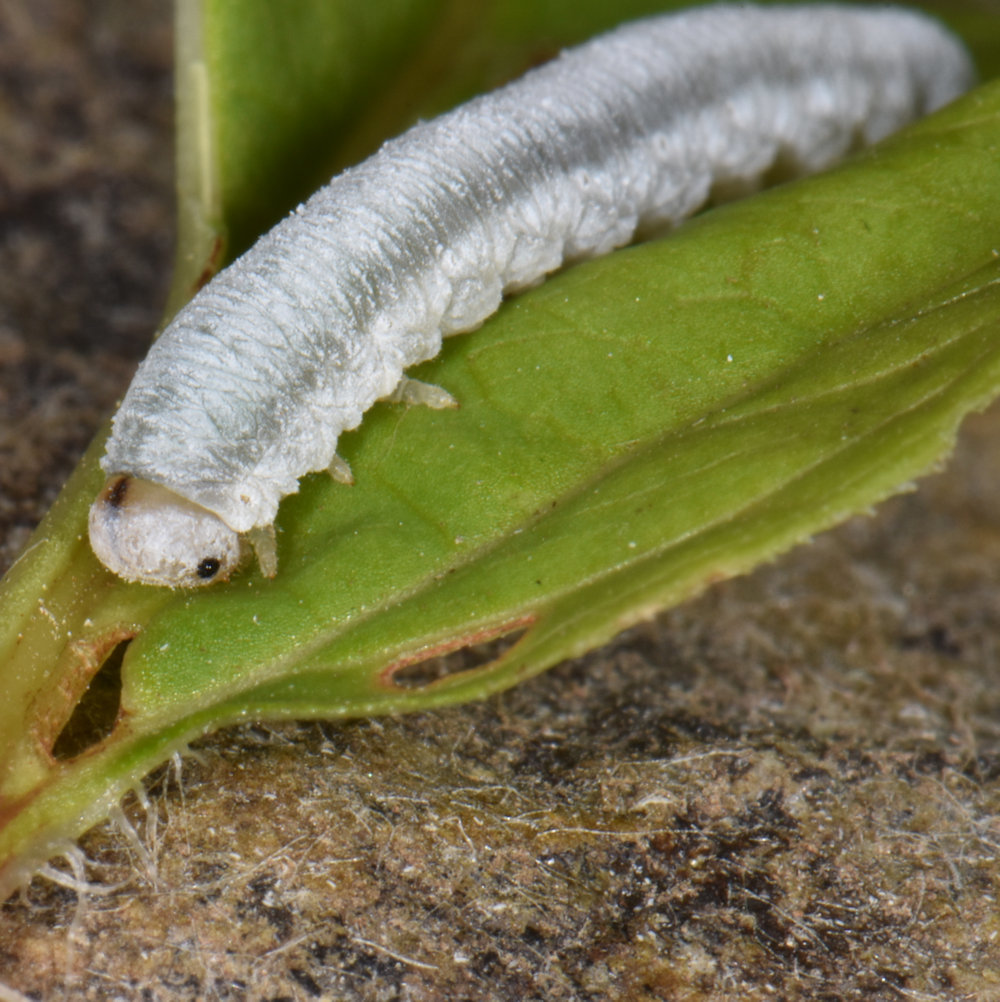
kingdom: Animalia
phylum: Arthropoda
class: Insecta
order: Hymenoptera
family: Tenthredinidae
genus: Monostegia
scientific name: Monostegia abdominalis
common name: Tenthredid wasp
